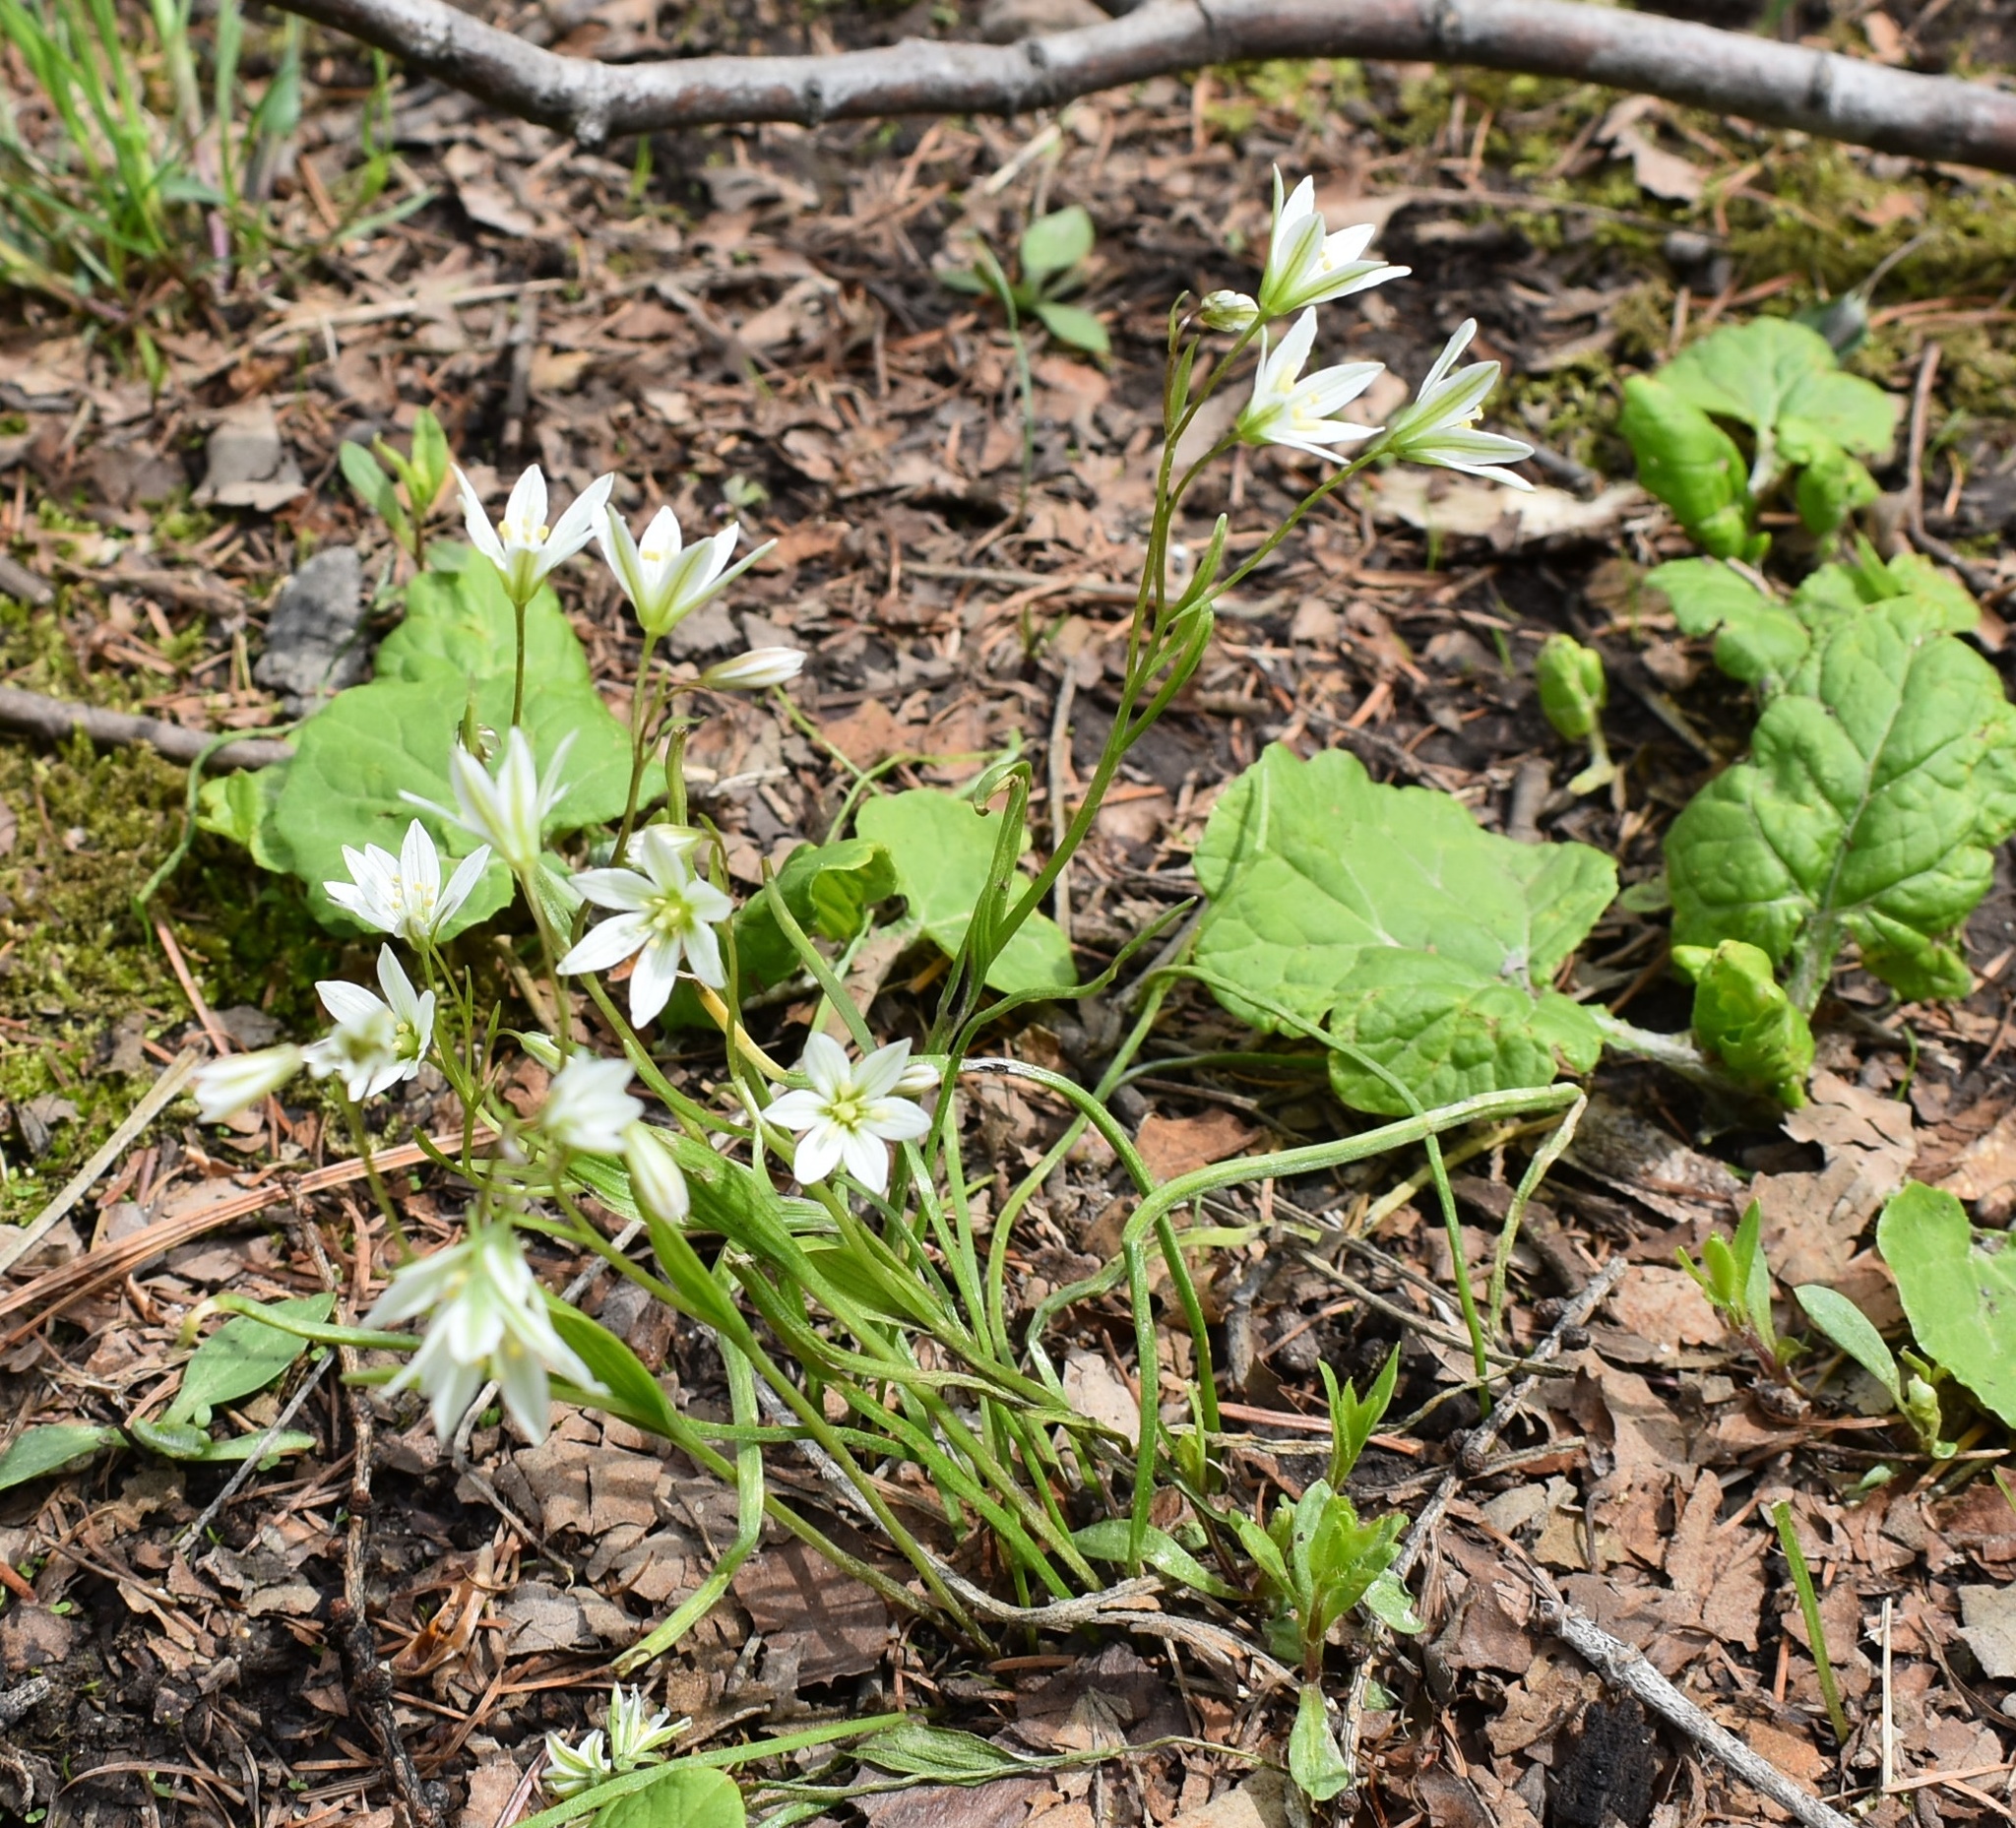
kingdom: Plantae
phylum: Tracheophyta
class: Liliopsida
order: Liliales
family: Liliaceae
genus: Gagea
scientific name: Gagea triflora
